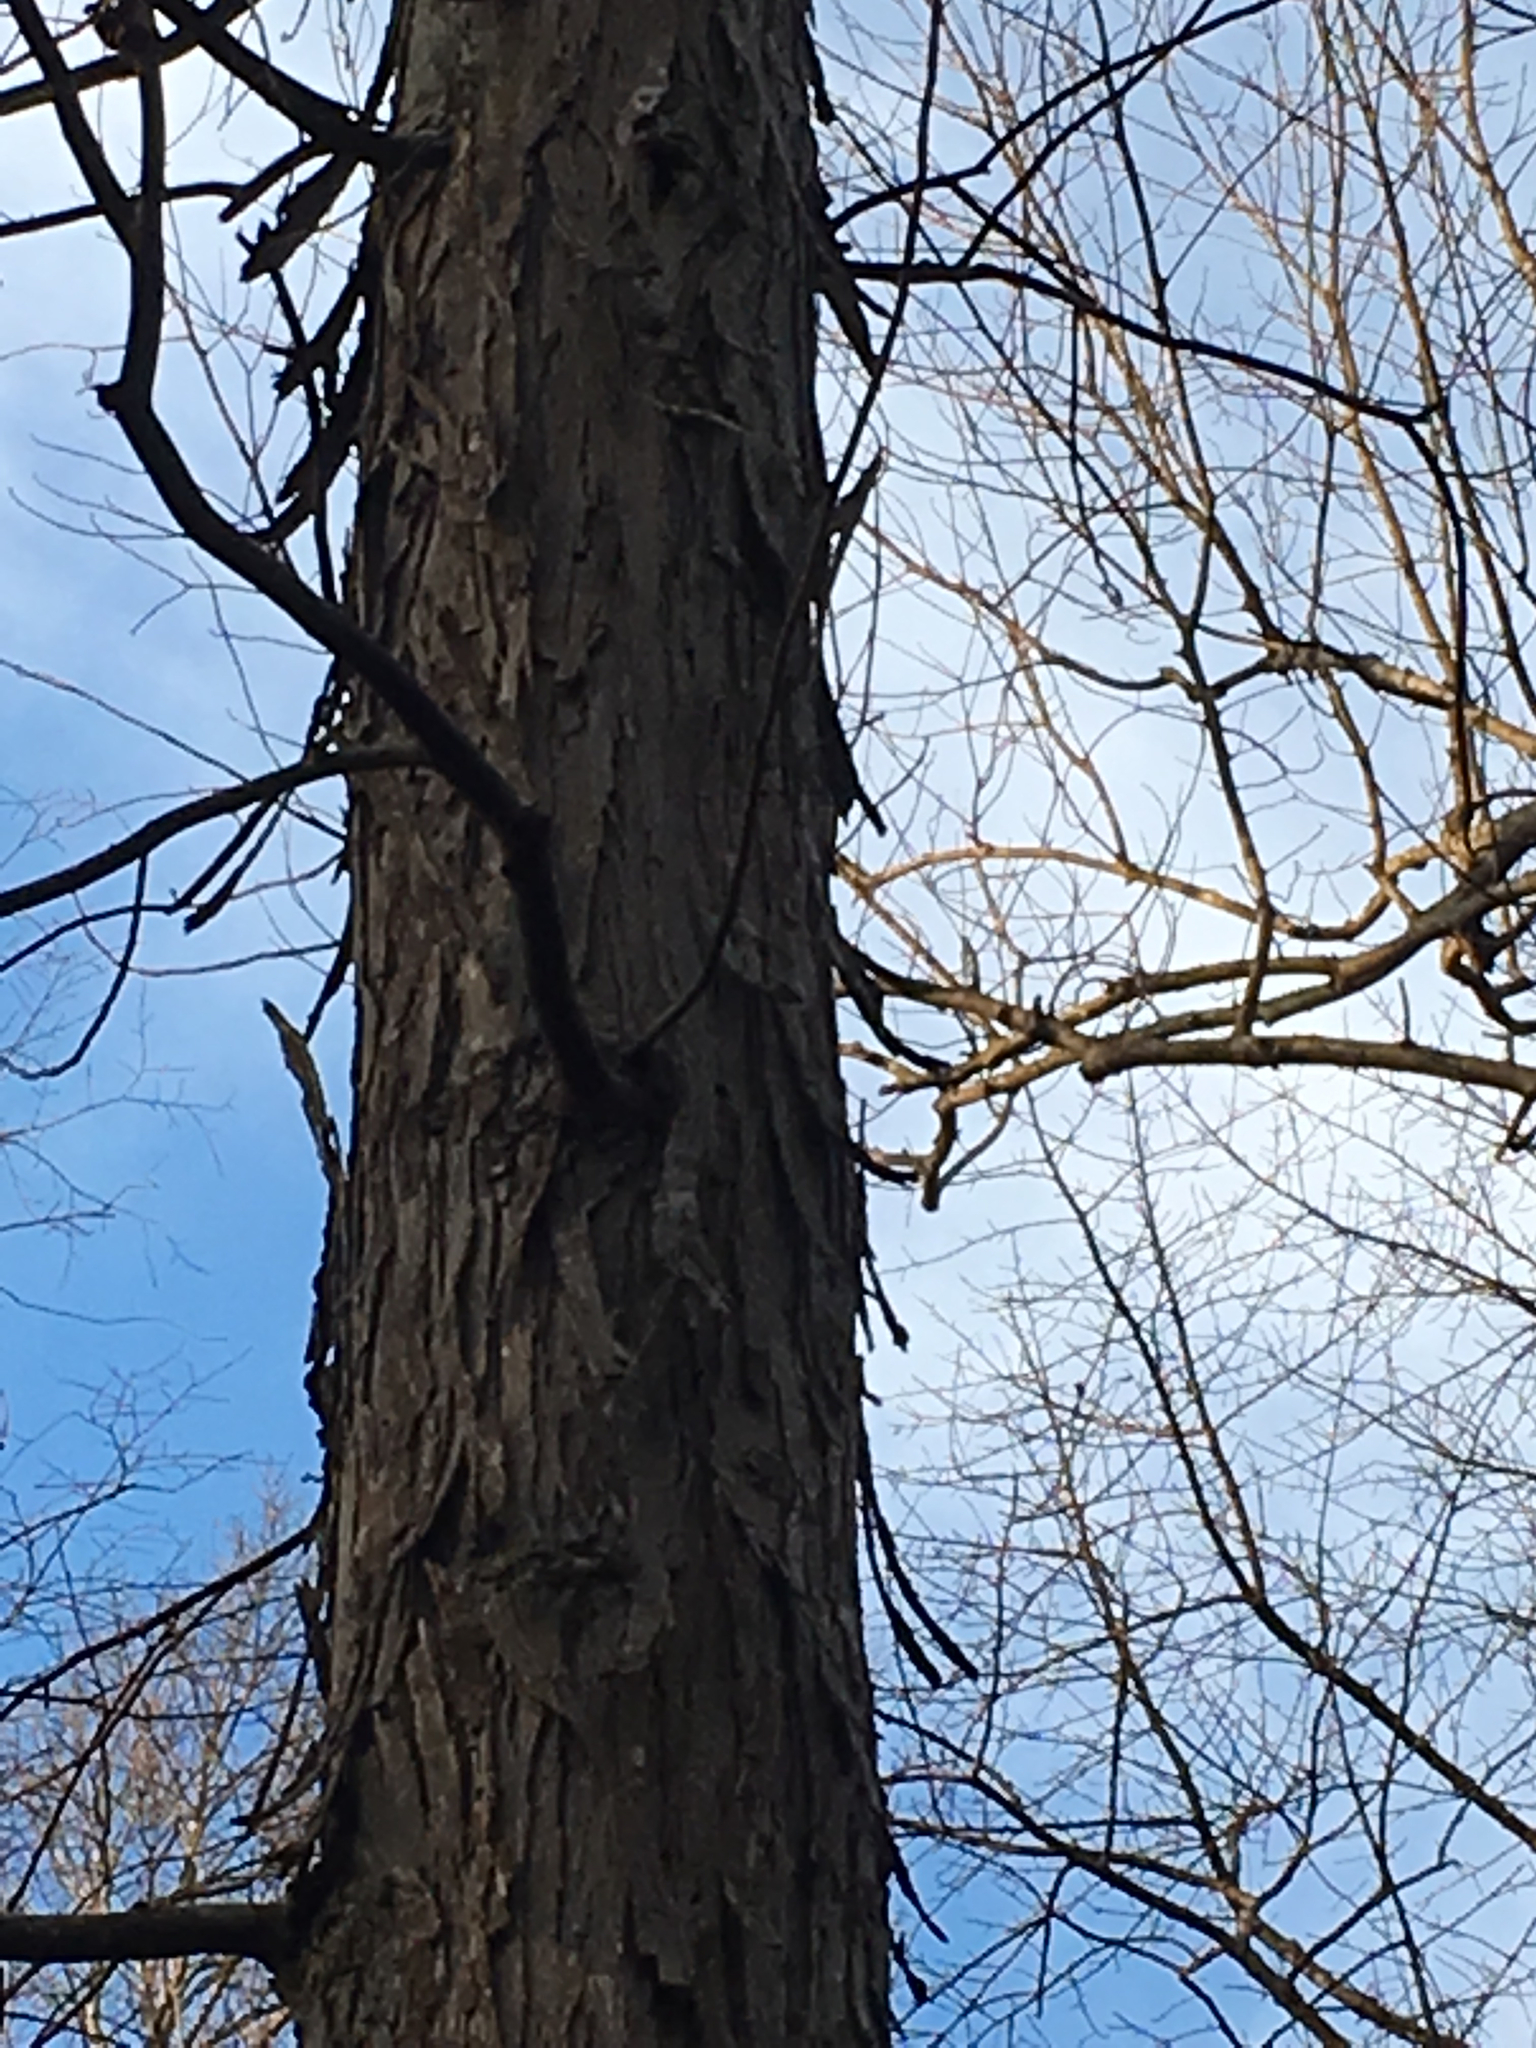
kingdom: Plantae
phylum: Tracheophyta
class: Magnoliopsida
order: Fagales
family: Juglandaceae
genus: Carya
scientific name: Carya carolinae-septentrionalis
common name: Carolina hickory
